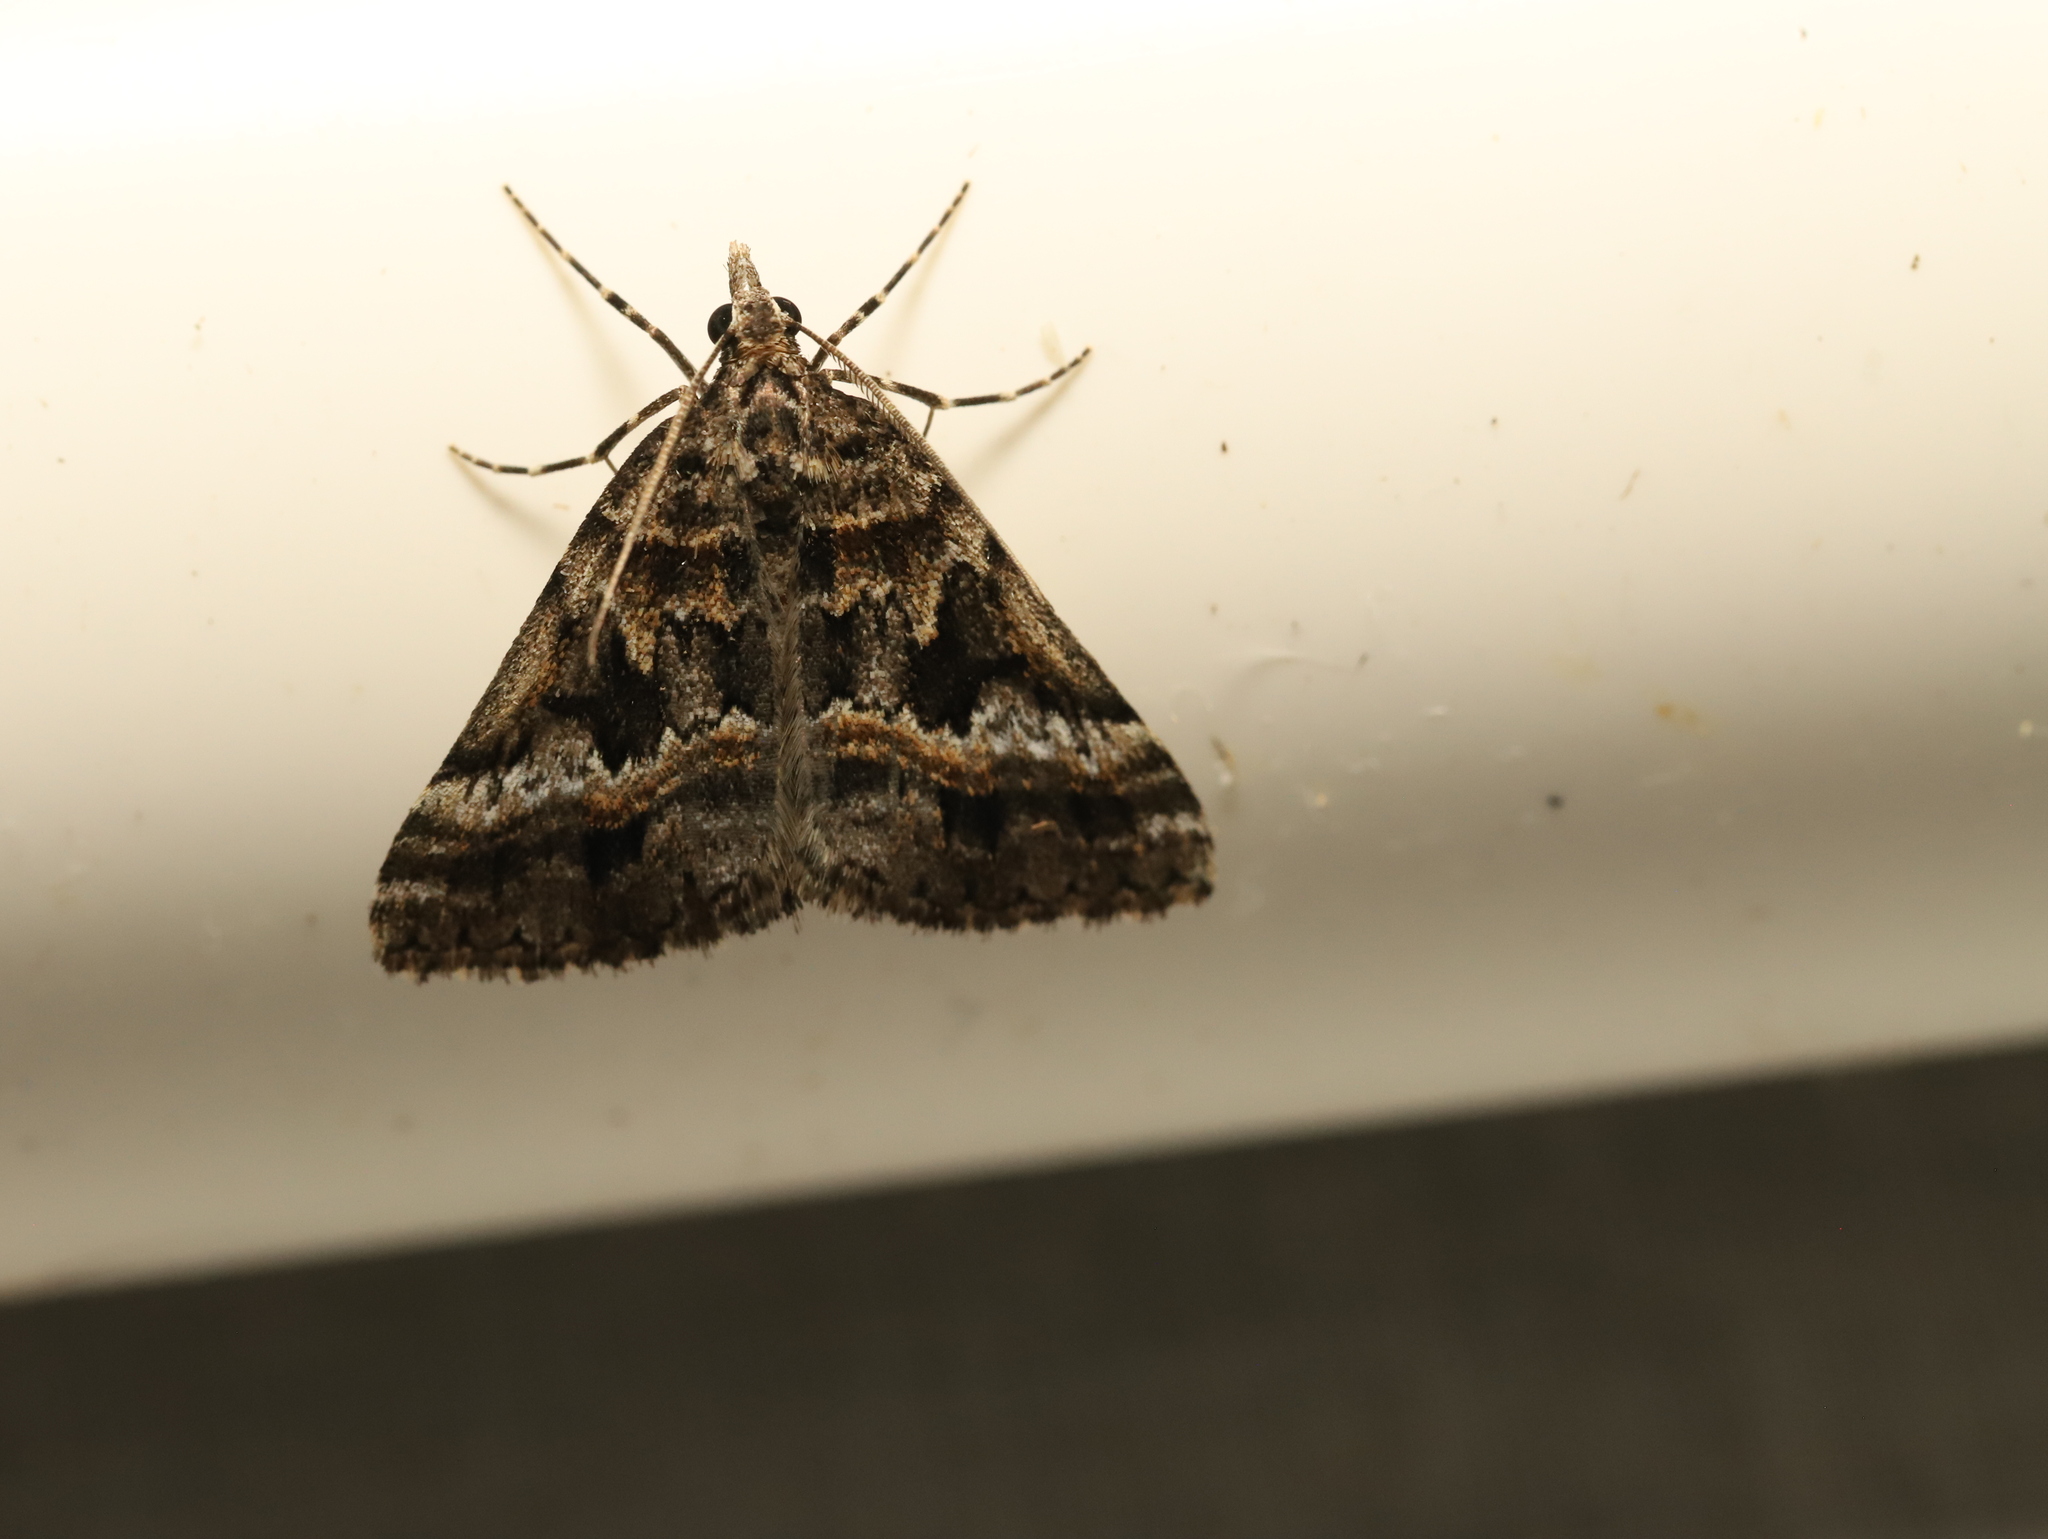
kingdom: Animalia
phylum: Arthropoda
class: Insecta
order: Lepidoptera
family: Geometridae
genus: Dichromodes
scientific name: Dichromodes emplecta
